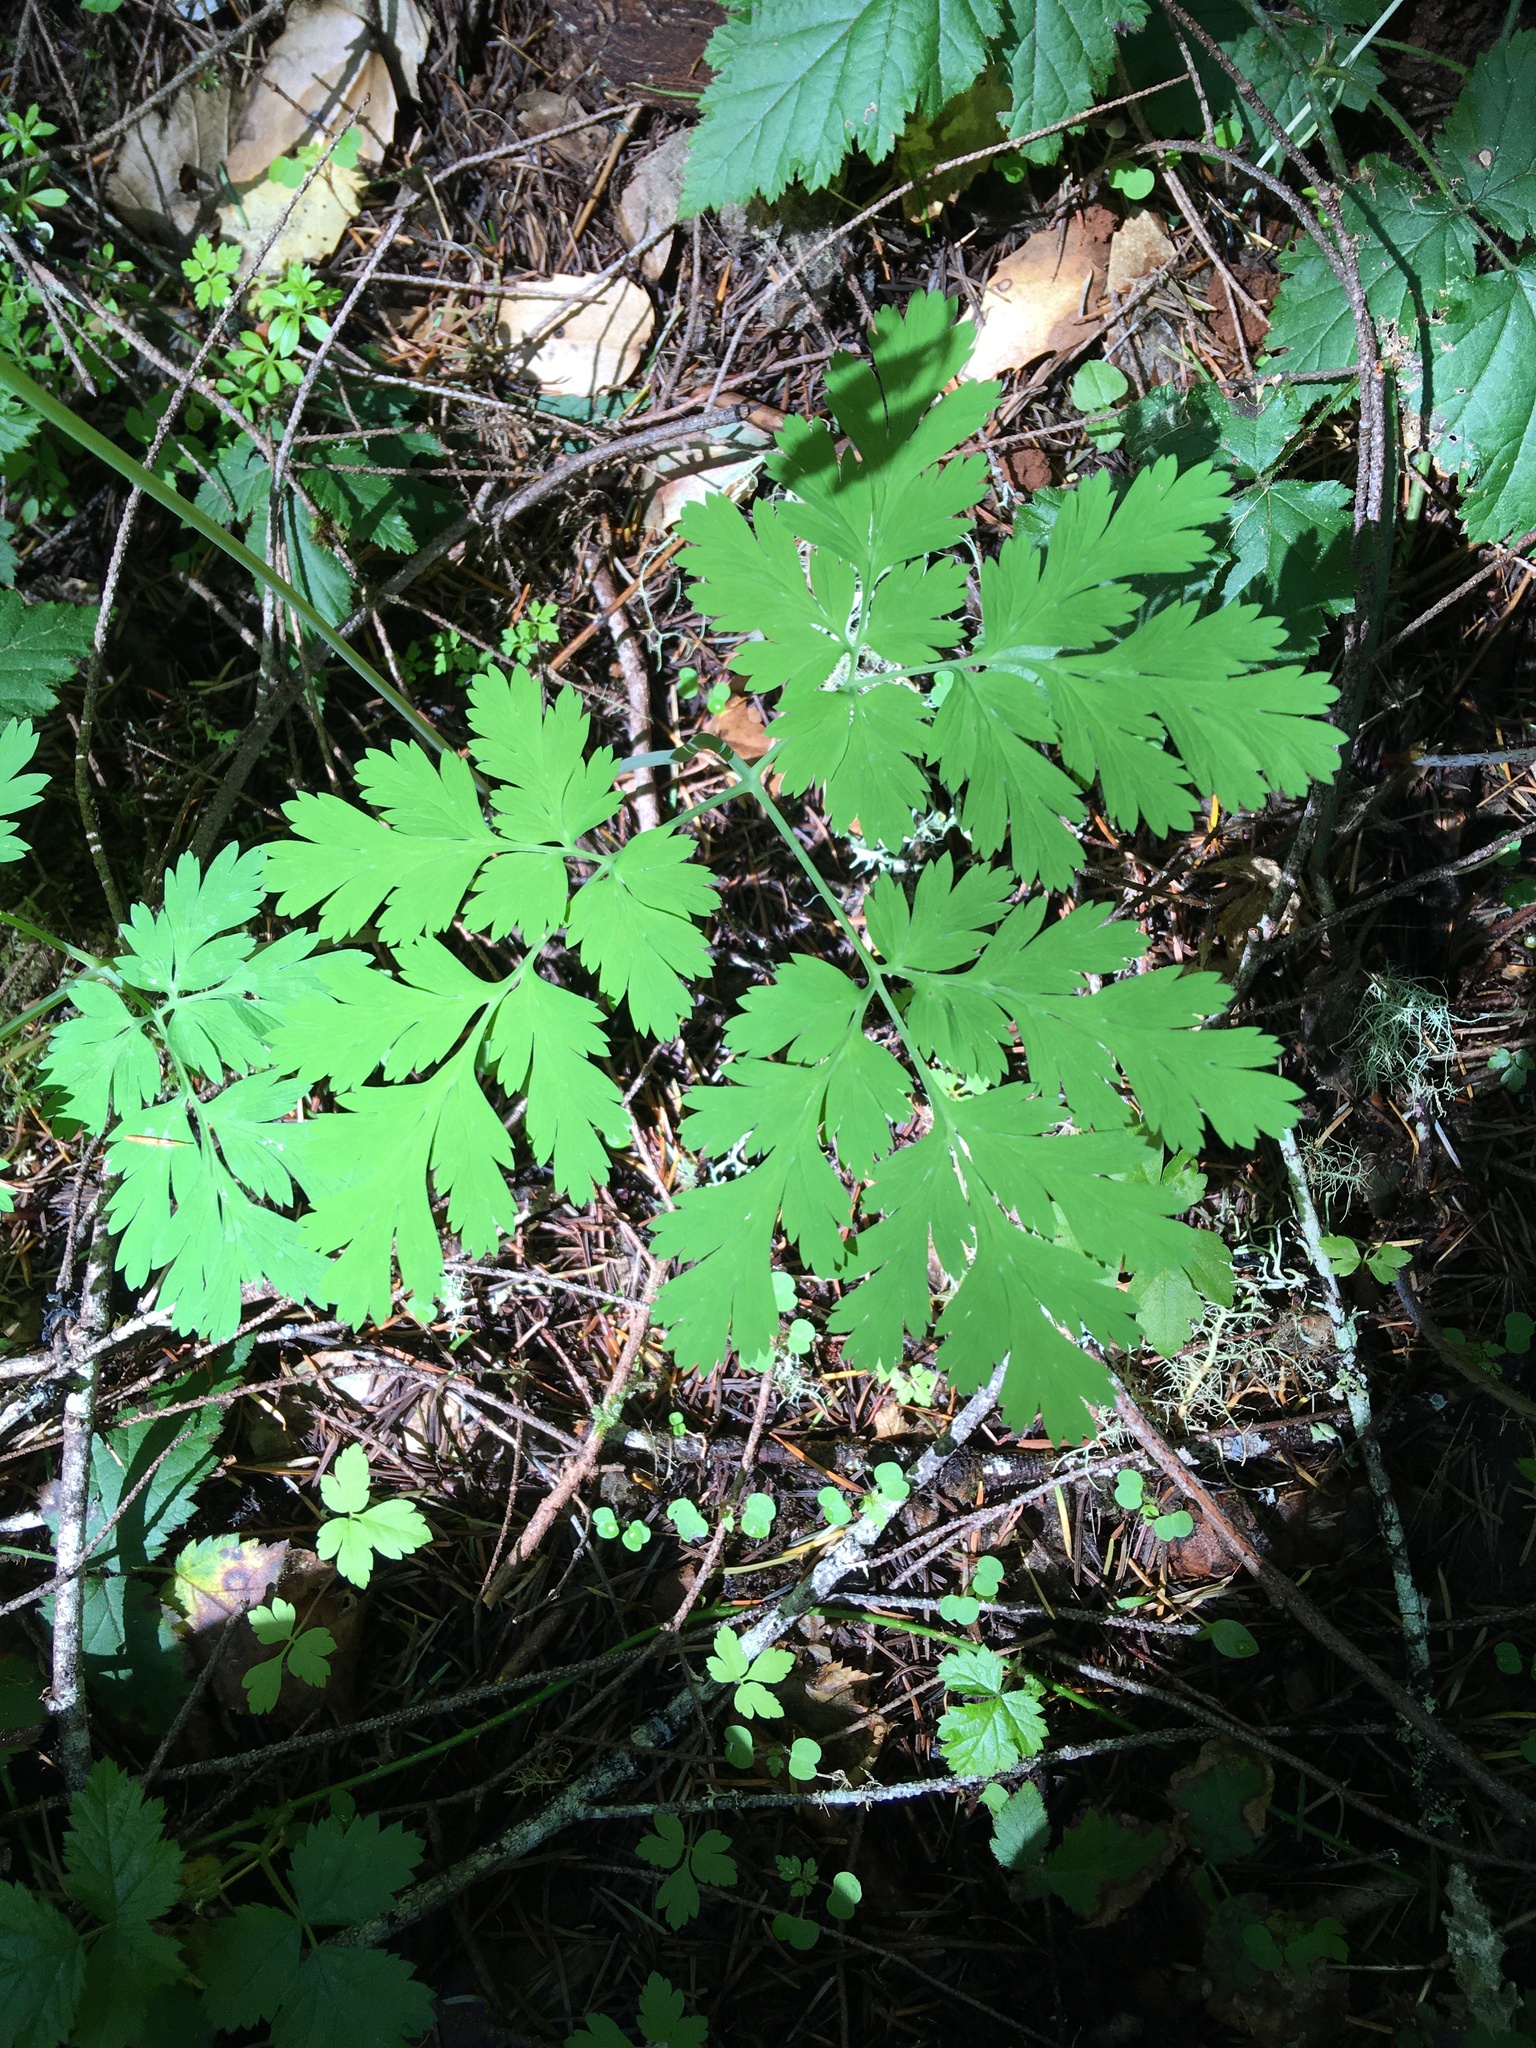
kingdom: Plantae
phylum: Tracheophyta
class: Magnoliopsida
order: Ranunculales
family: Papaveraceae
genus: Dicentra
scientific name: Dicentra formosa
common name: Bleeding-heart
